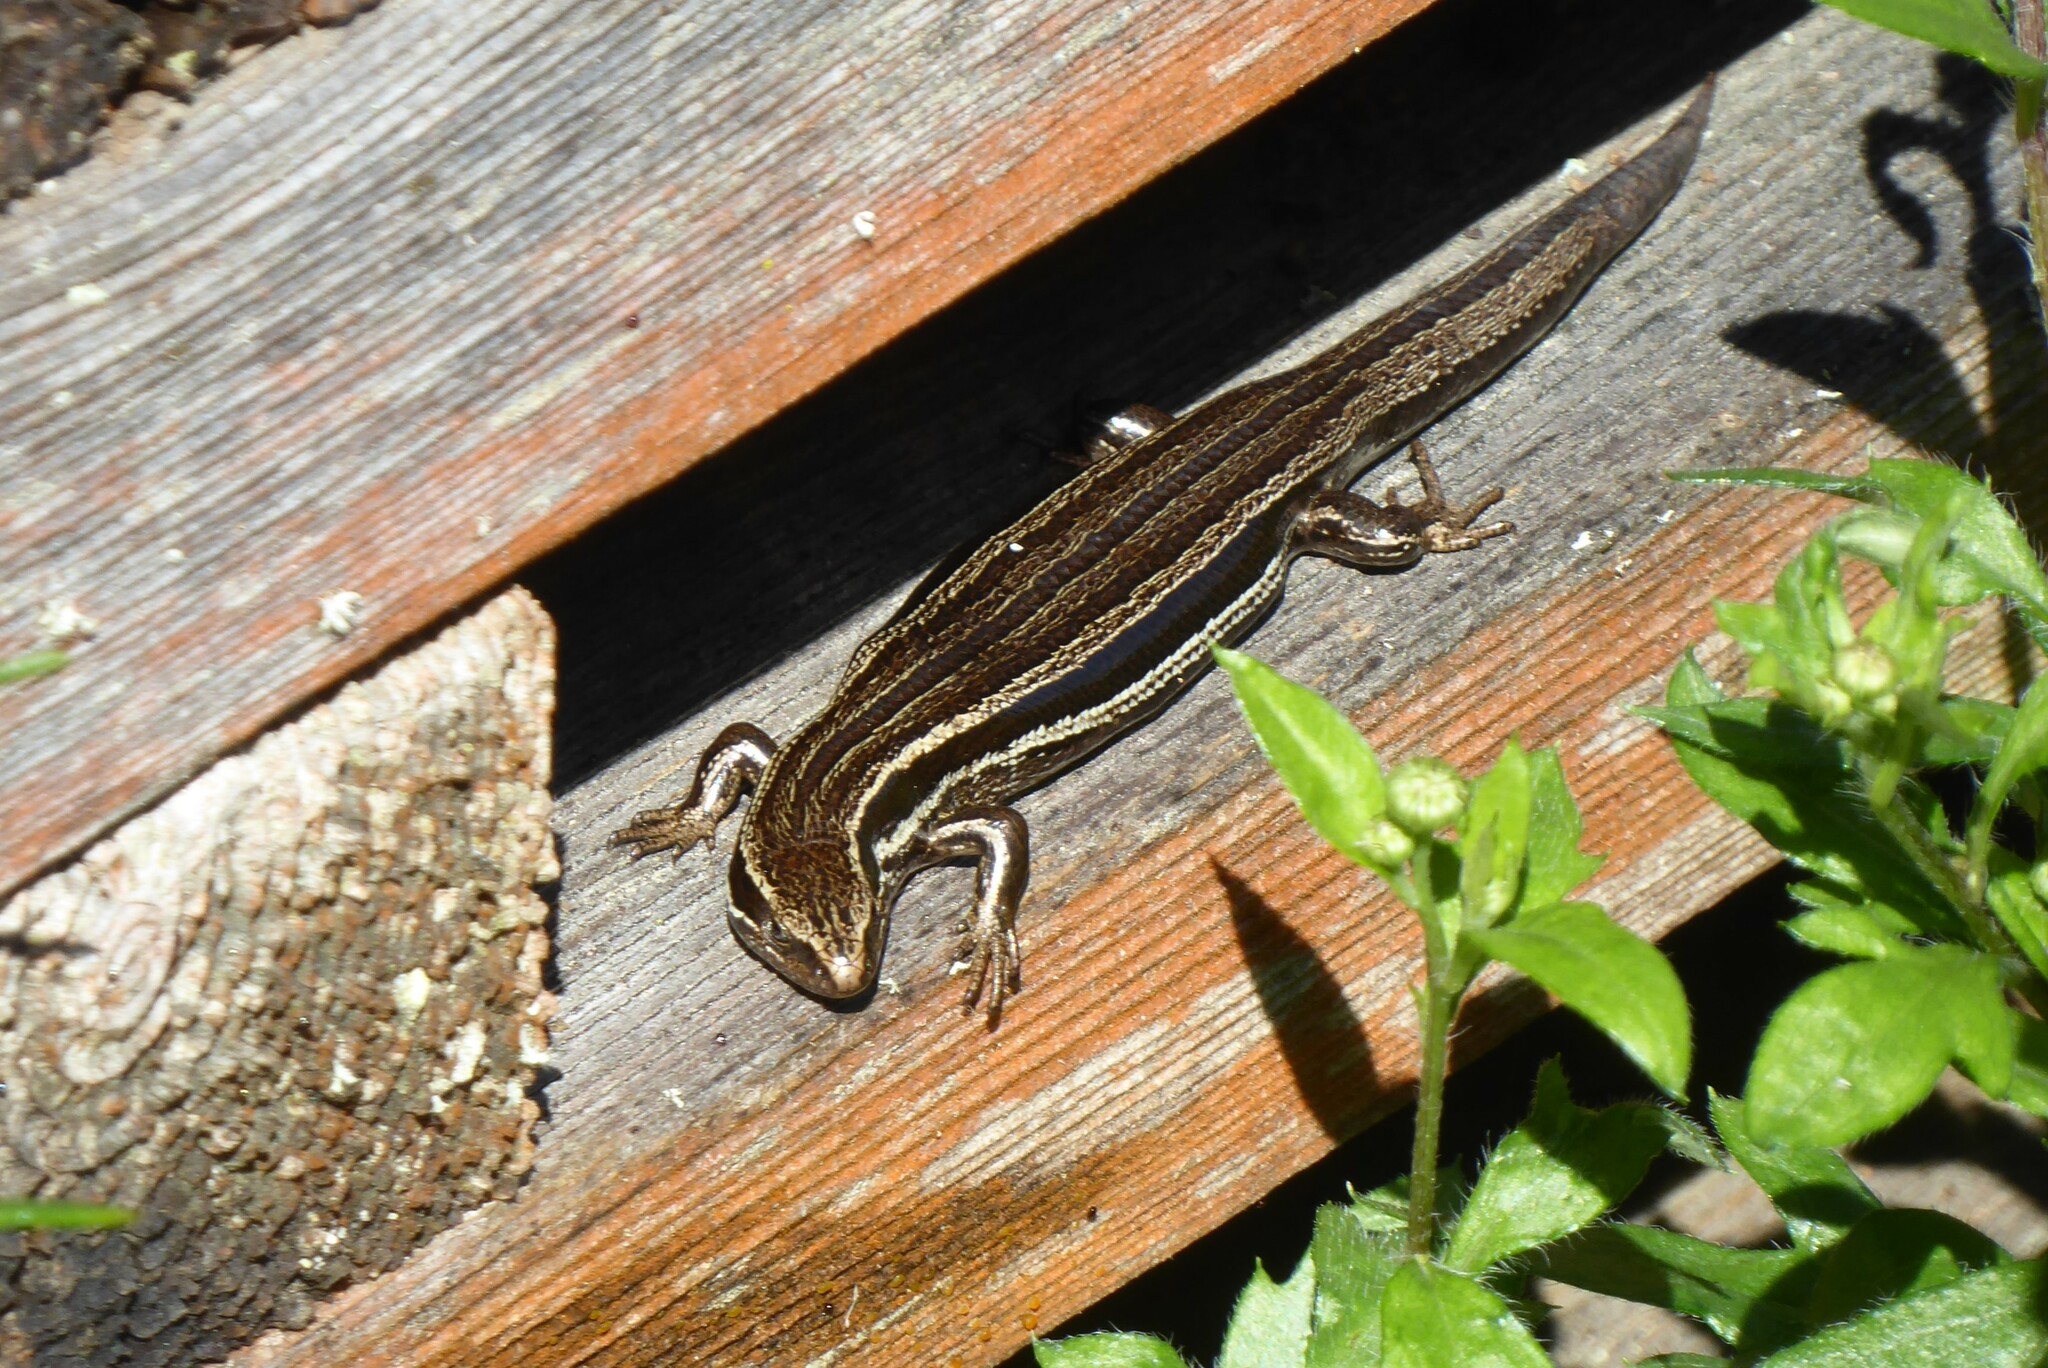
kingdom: Animalia
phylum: Chordata
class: Squamata
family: Scincidae
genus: Oligosoma
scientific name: Oligosoma polychroma
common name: Common new zealand skink
